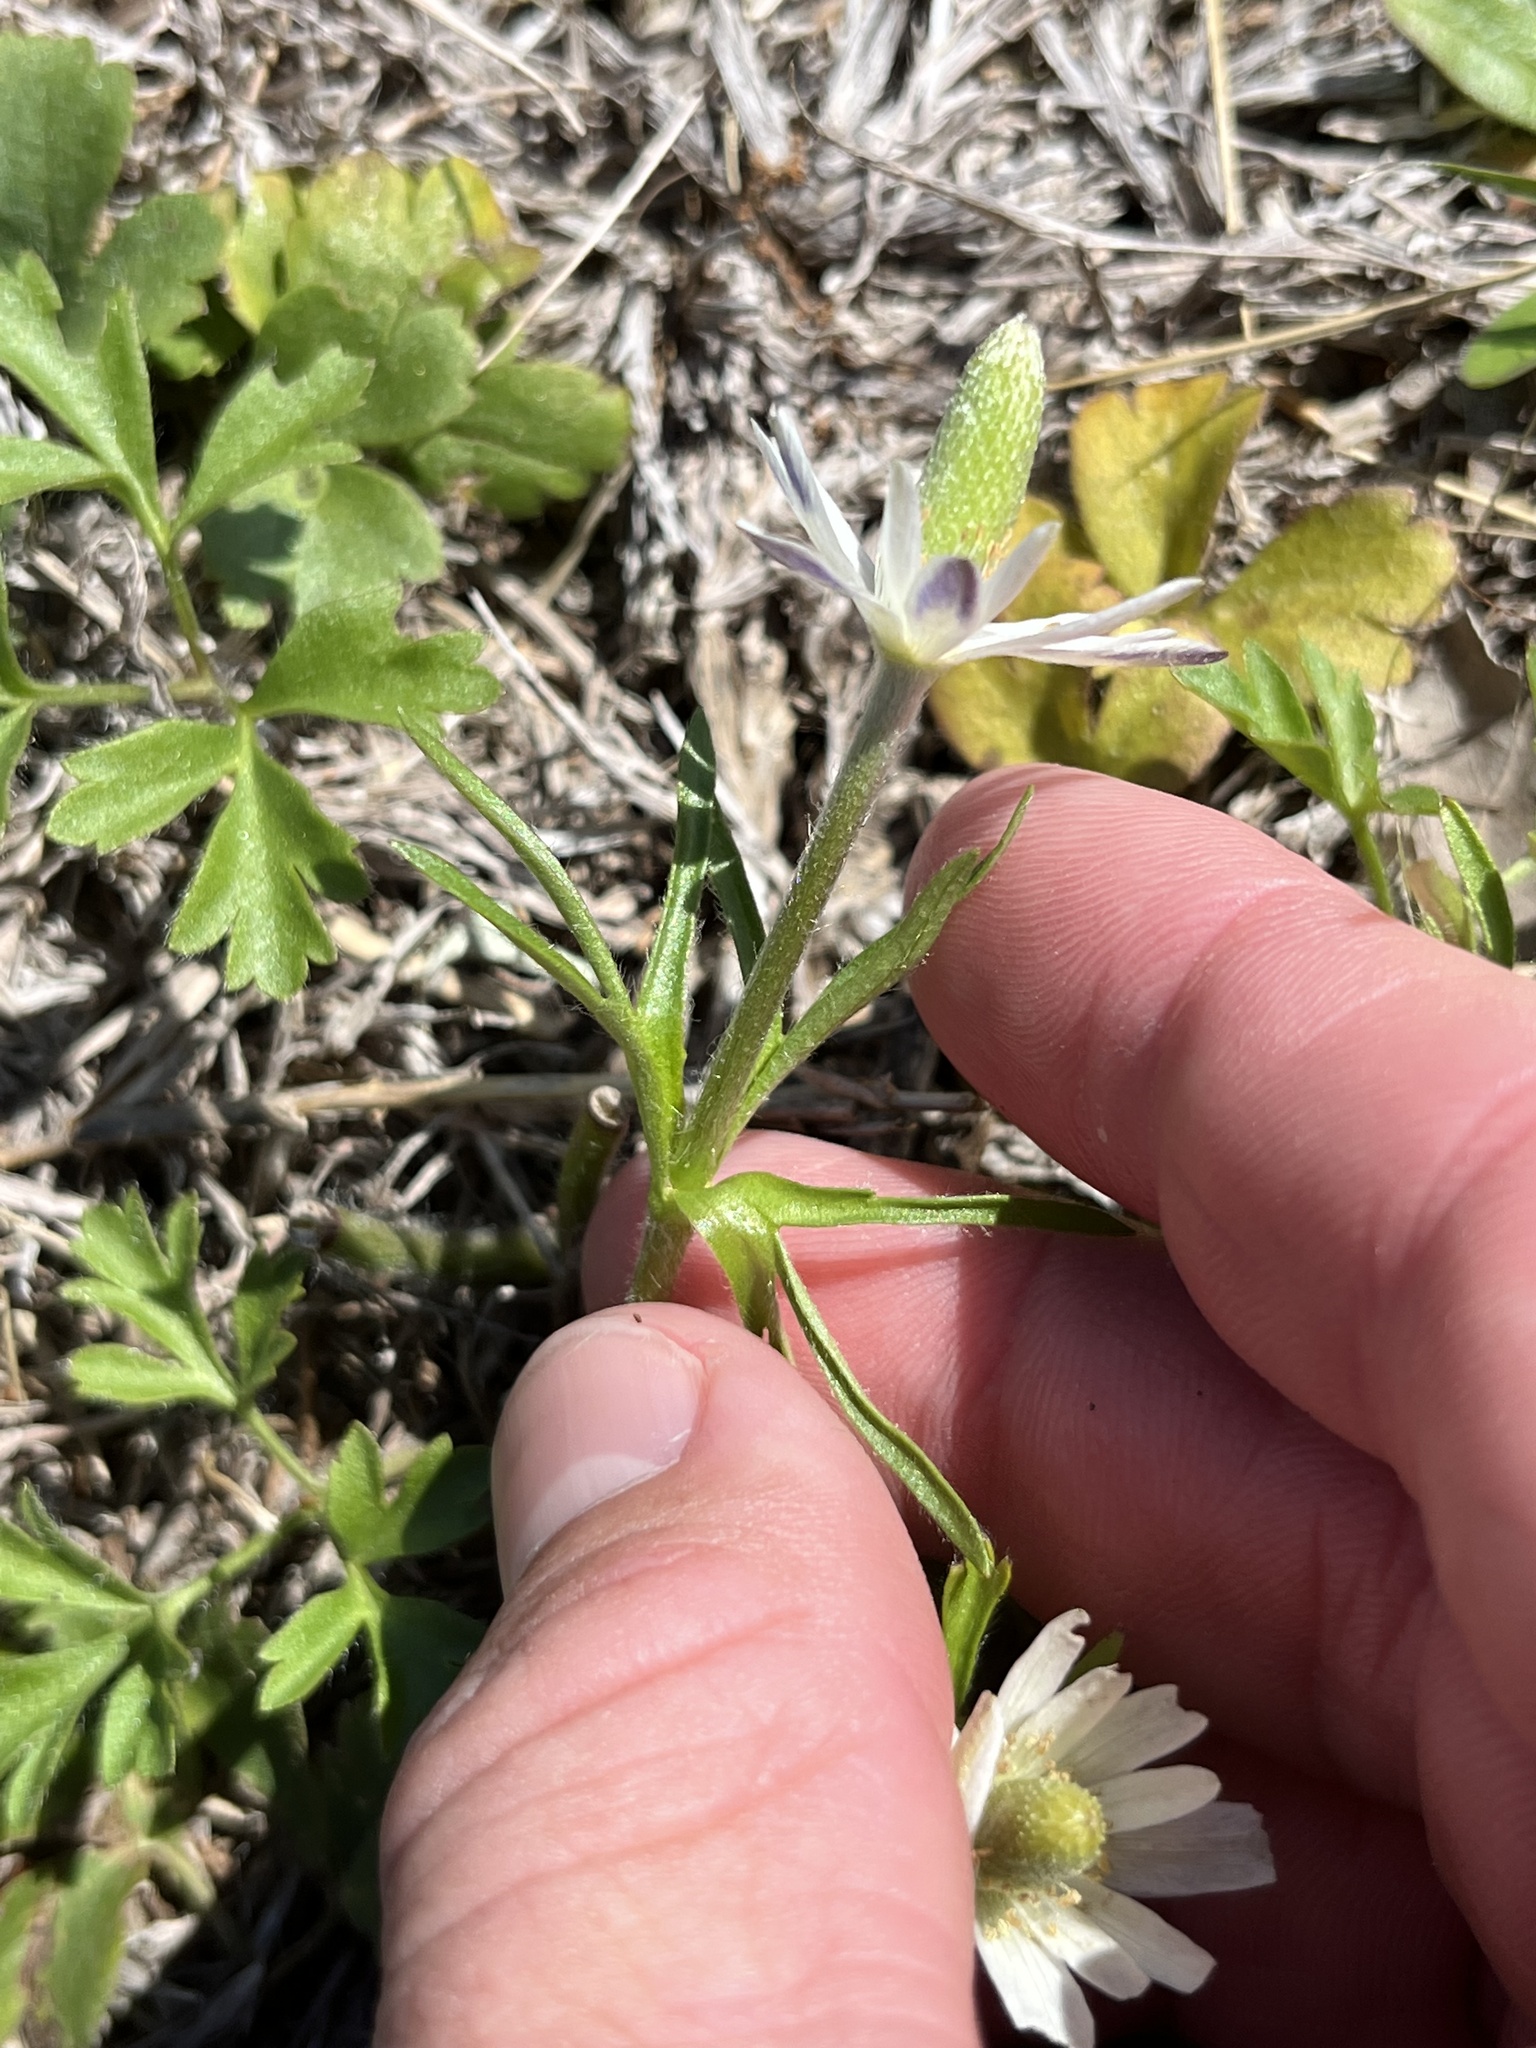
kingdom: Plantae
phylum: Tracheophyta
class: Magnoliopsida
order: Ranunculales
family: Ranunculaceae
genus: Anemone
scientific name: Anemone berlandieri
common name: Ten-petal anemone
